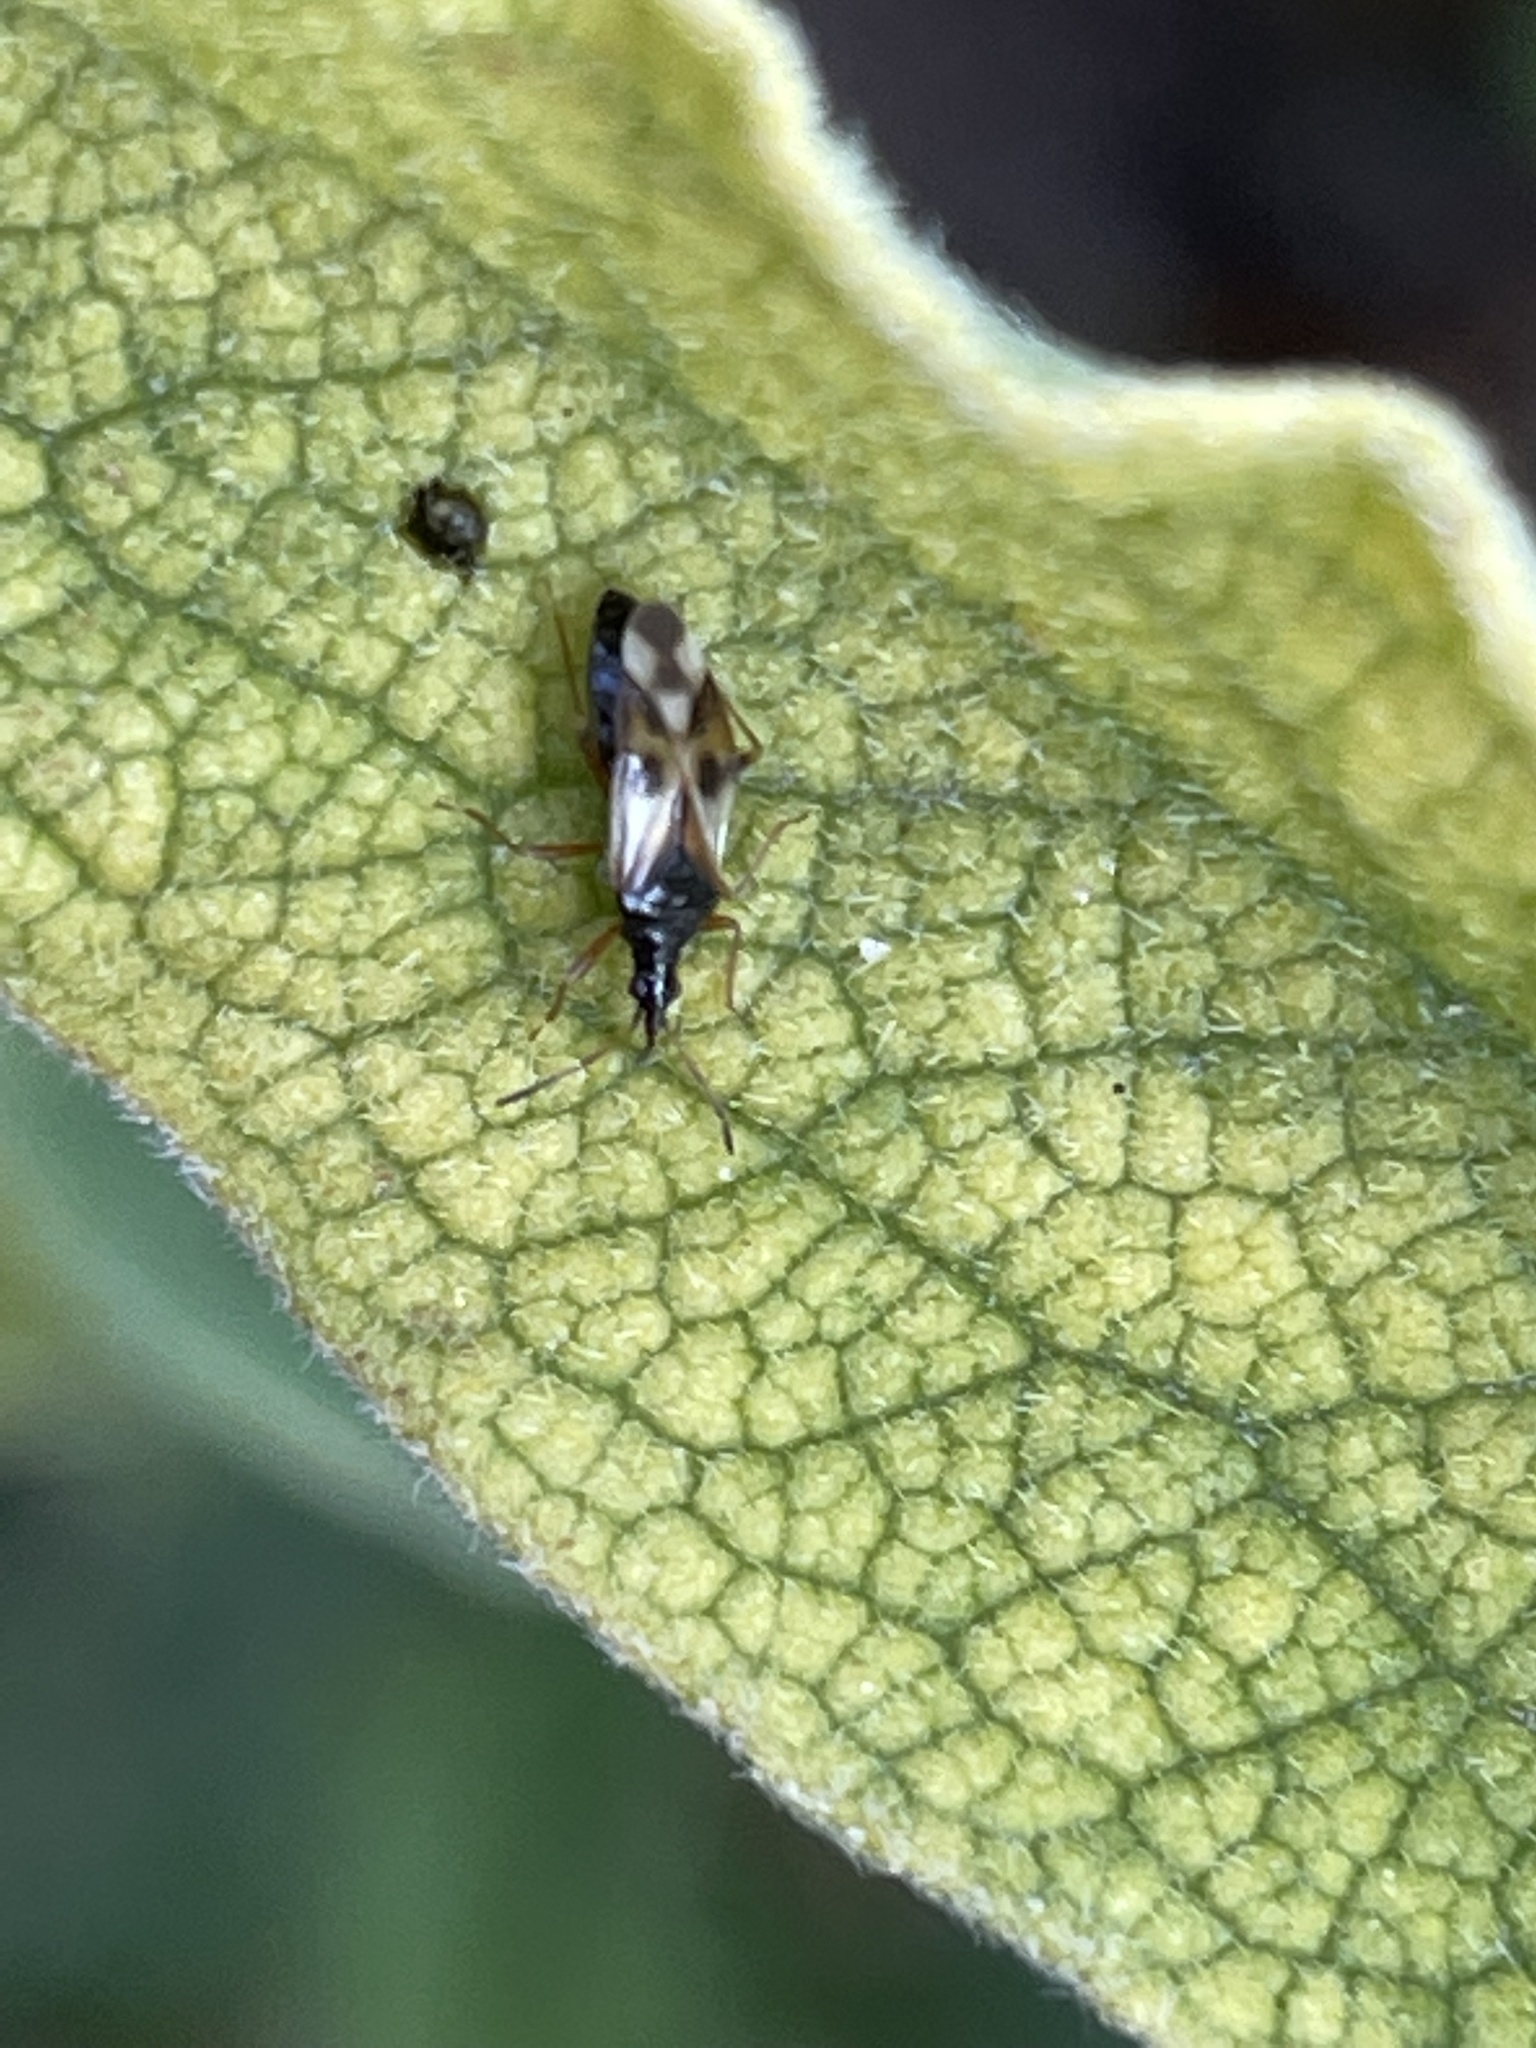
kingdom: Animalia
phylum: Arthropoda
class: Insecta
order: Hemiptera
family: Anthocoridae
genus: Anthocoris
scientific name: Anthocoris nemorum
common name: Minute pirate bug
